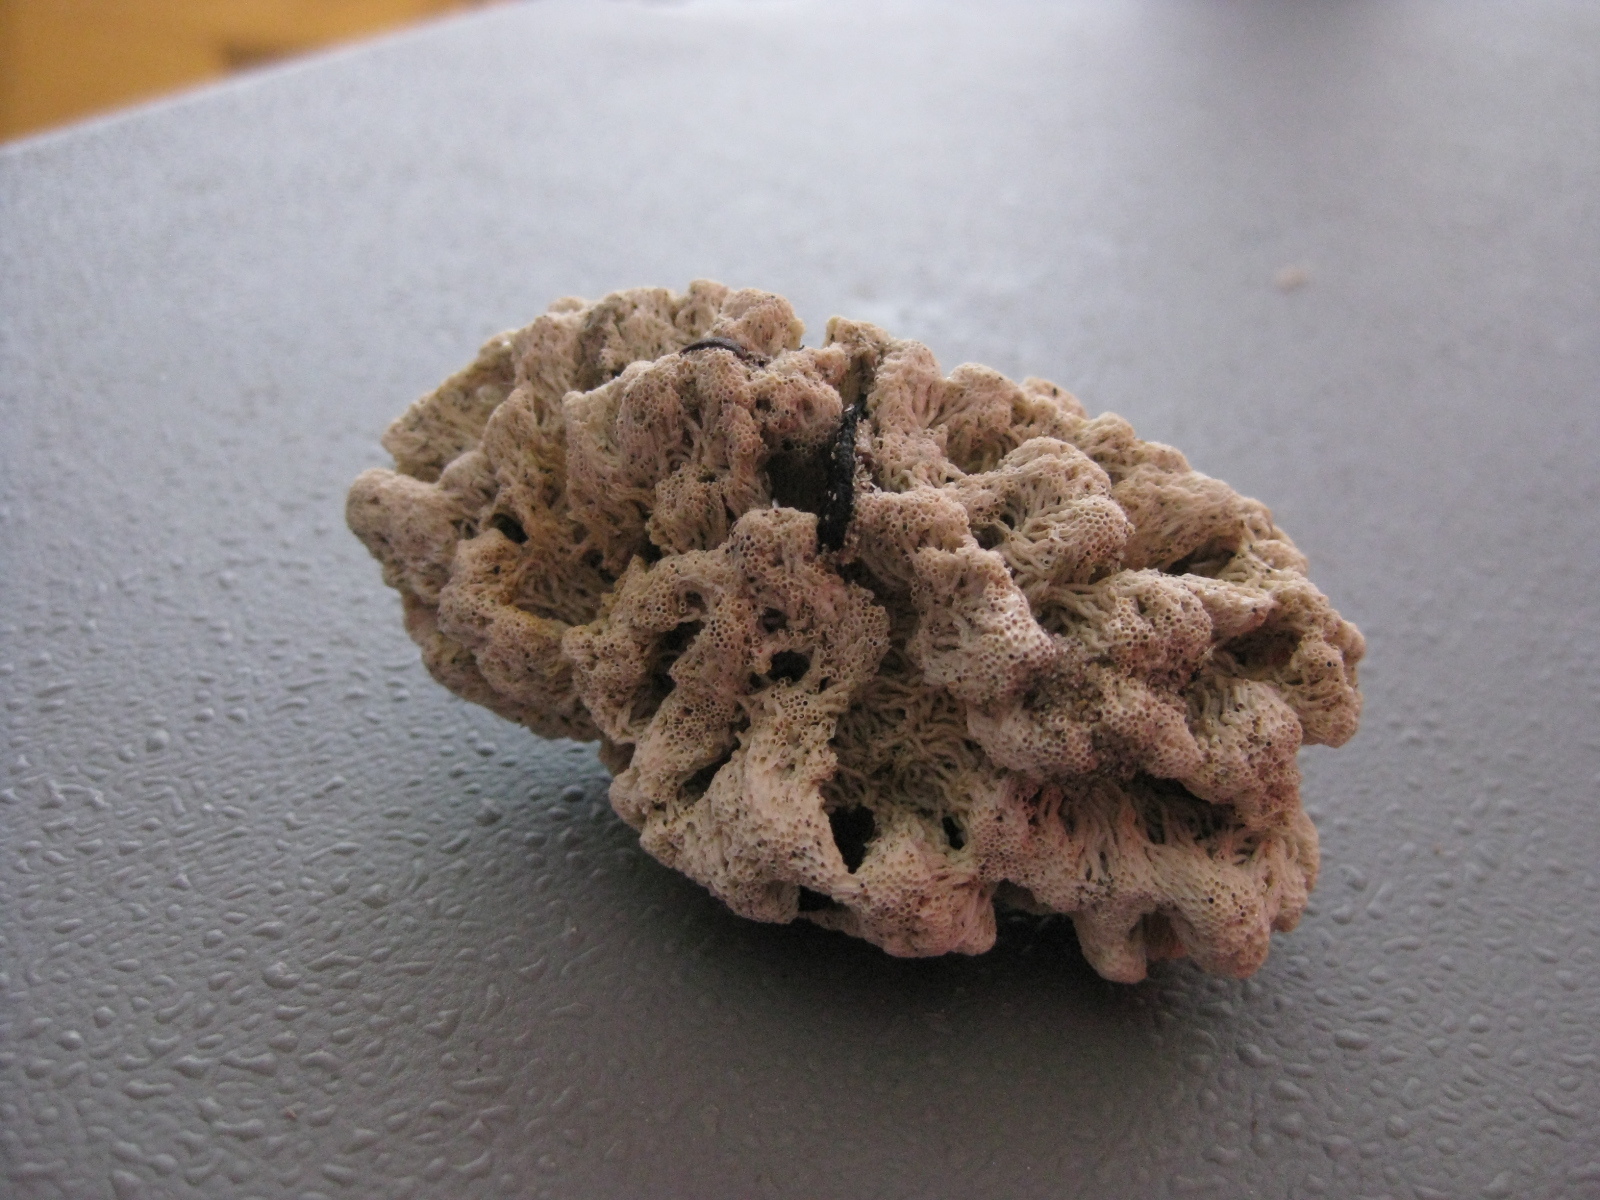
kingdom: Animalia
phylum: Annelida
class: Polychaeta
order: Sabellida
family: Serpulidae
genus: Salmacina
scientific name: Salmacina australis
